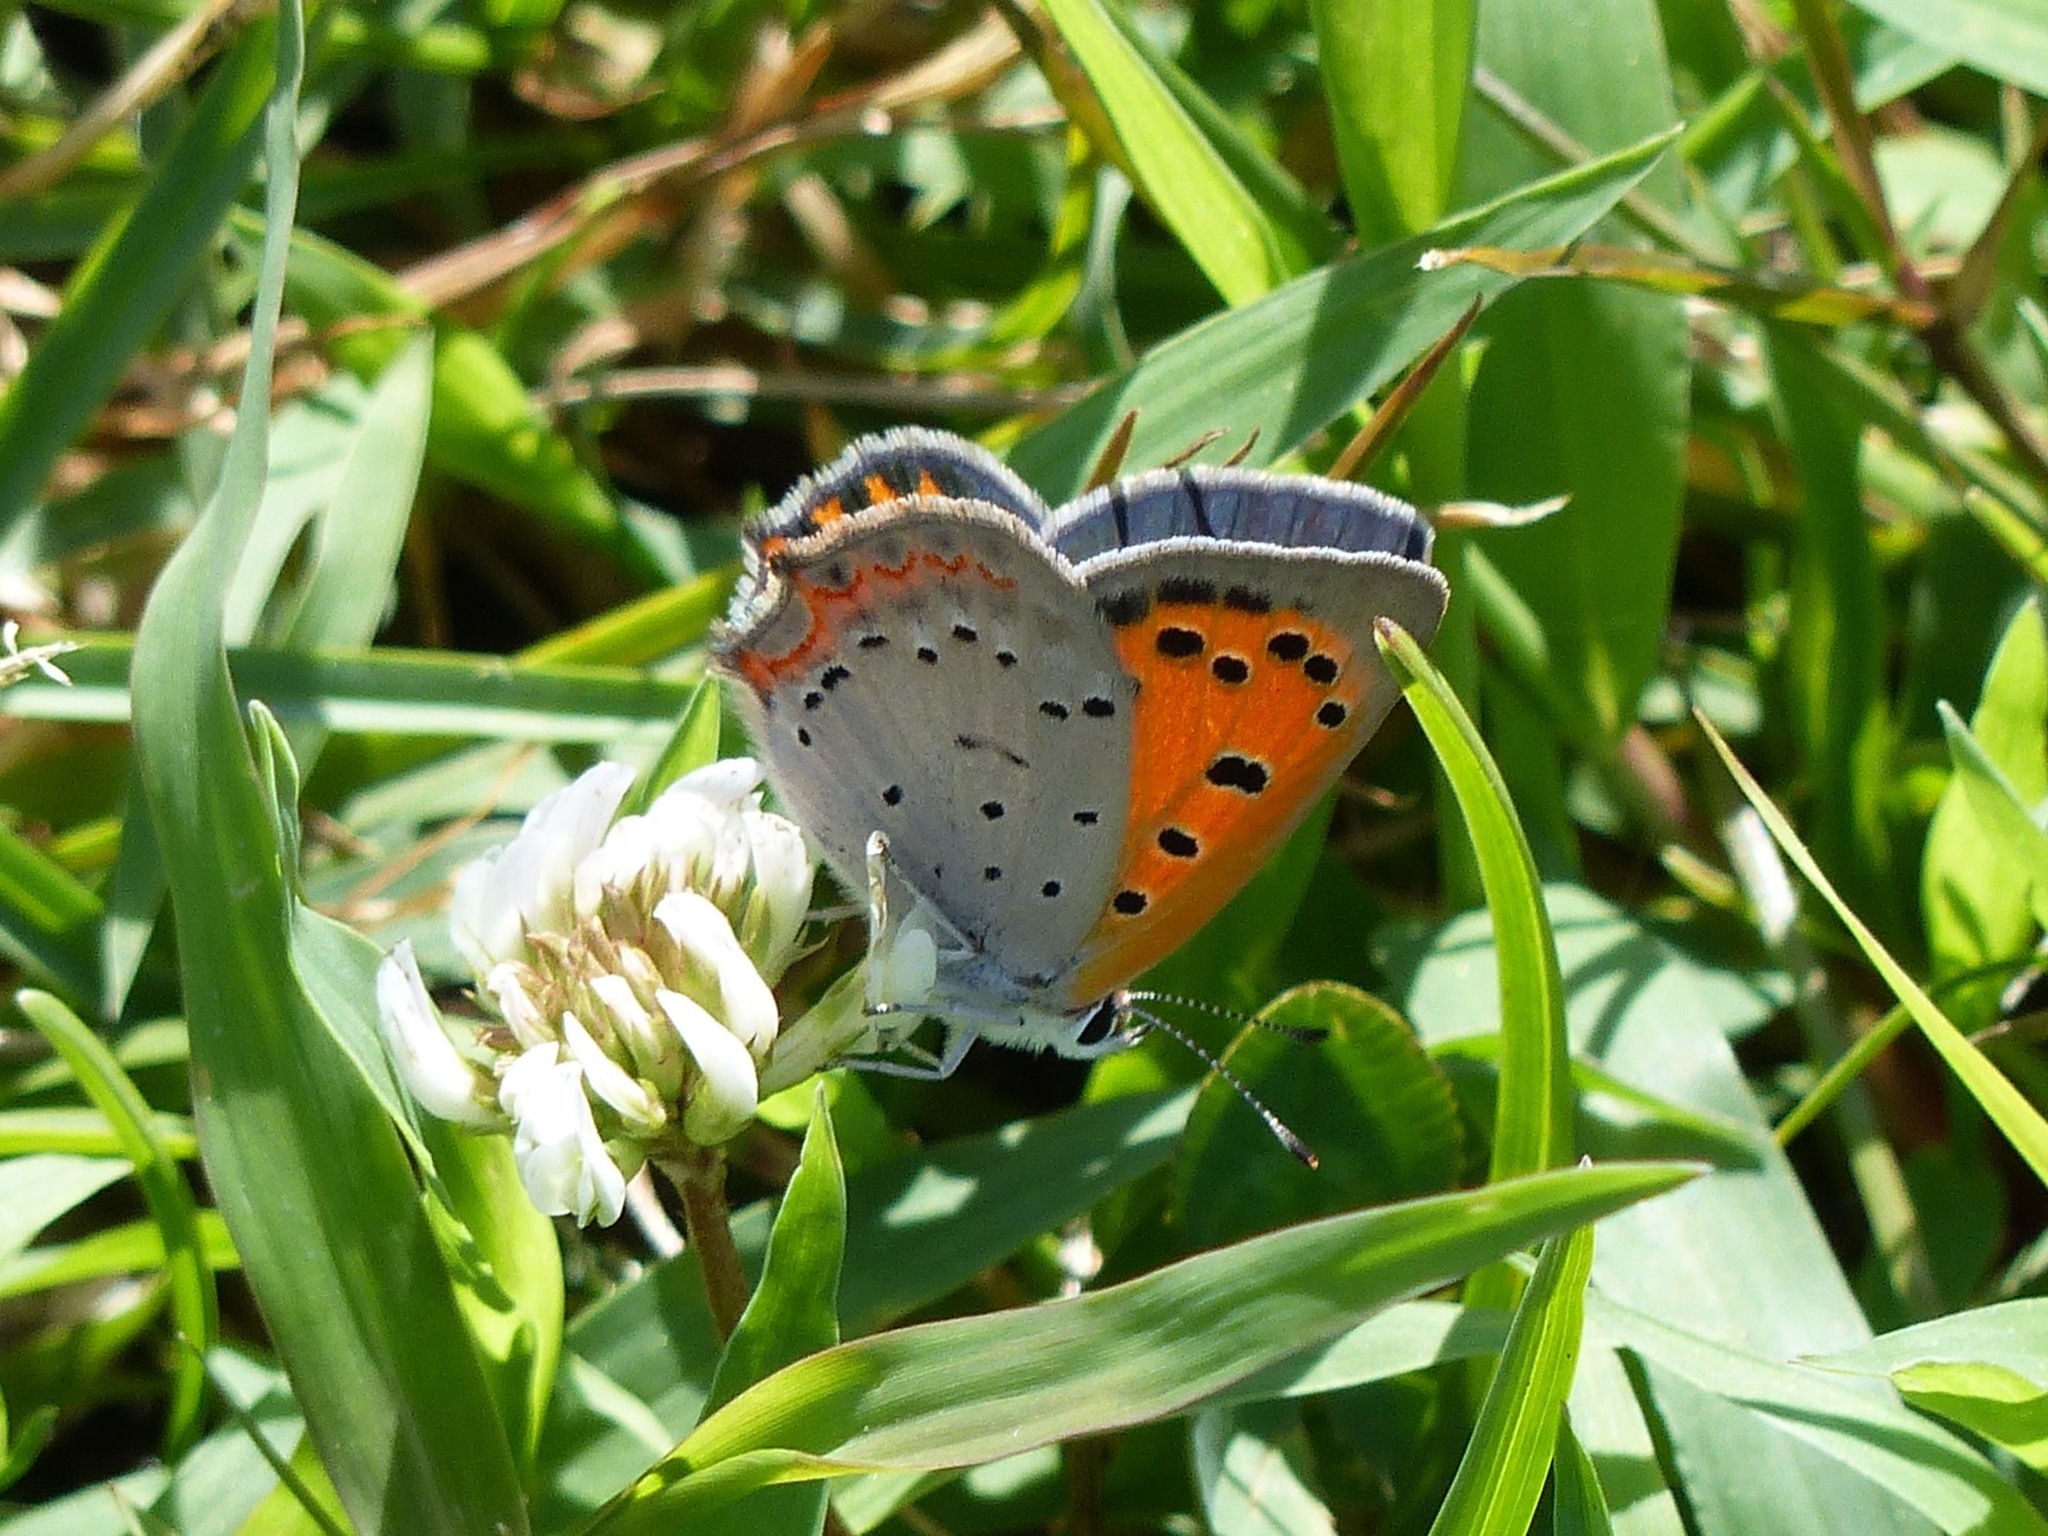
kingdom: Animalia
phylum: Arthropoda
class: Insecta
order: Lepidoptera
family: Lycaenidae
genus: Lycaena
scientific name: Lycaena hypophlaeas
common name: American copper
